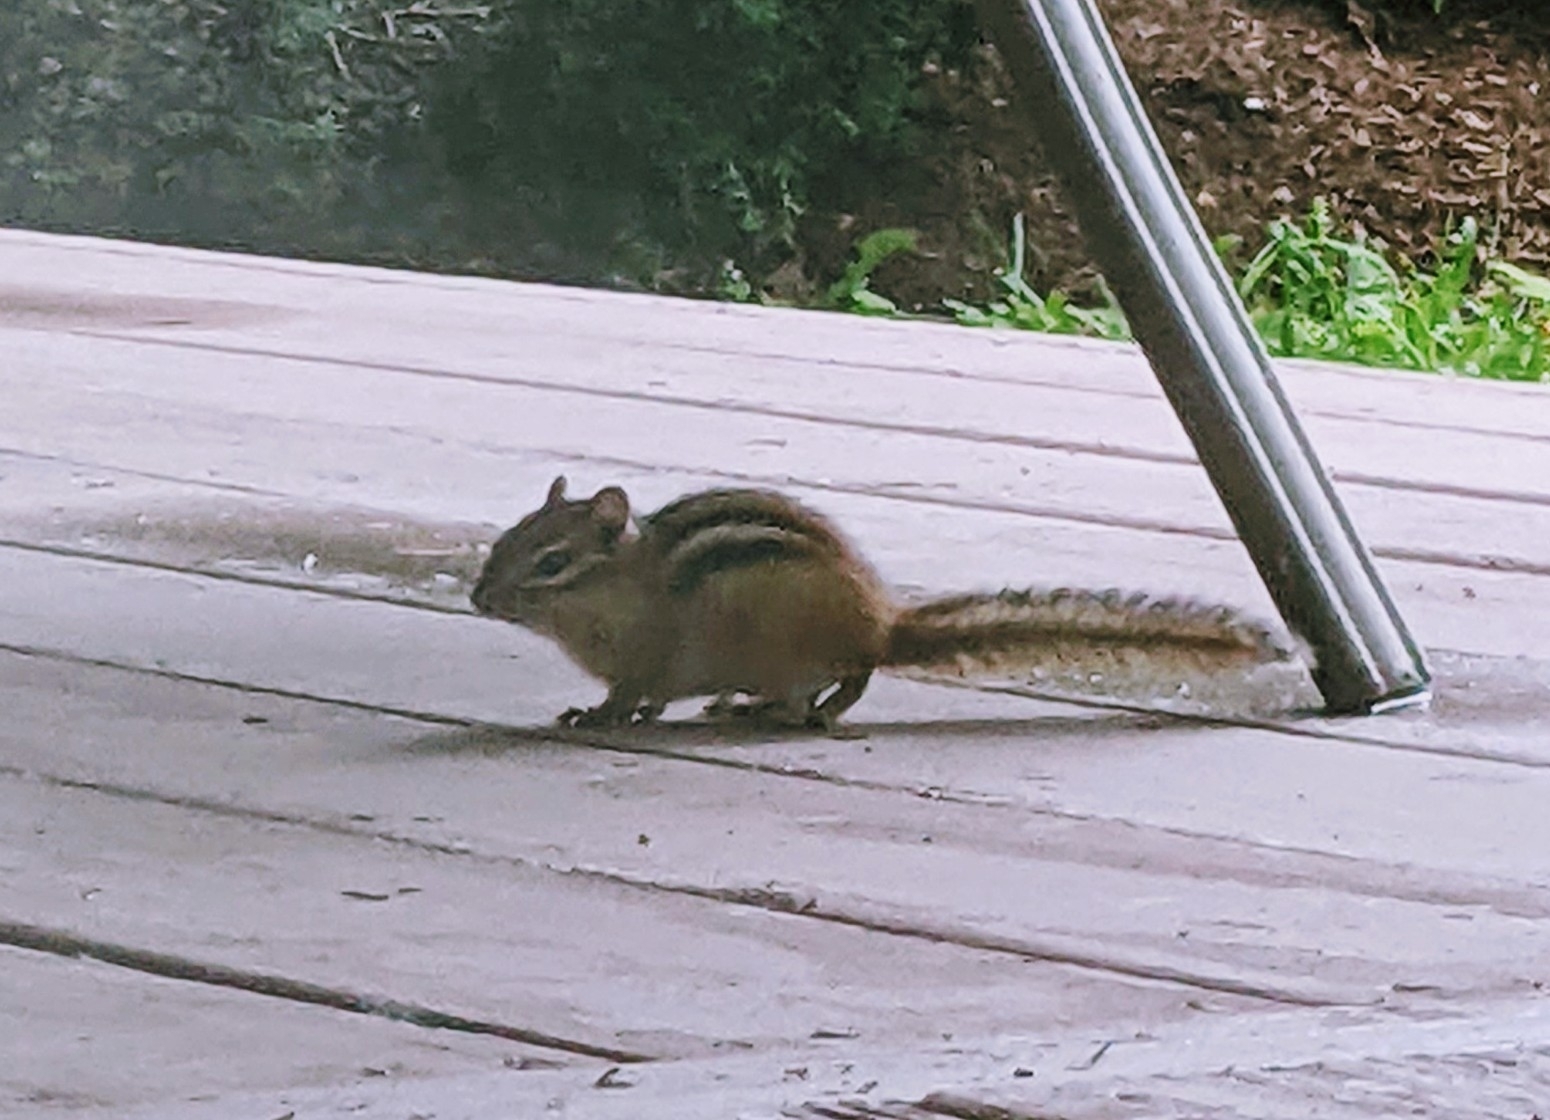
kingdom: Animalia
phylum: Chordata
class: Mammalia
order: Rodentia
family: Sciuridae
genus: Tamias
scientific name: Tamias striatus
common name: Eastern chipmunk
